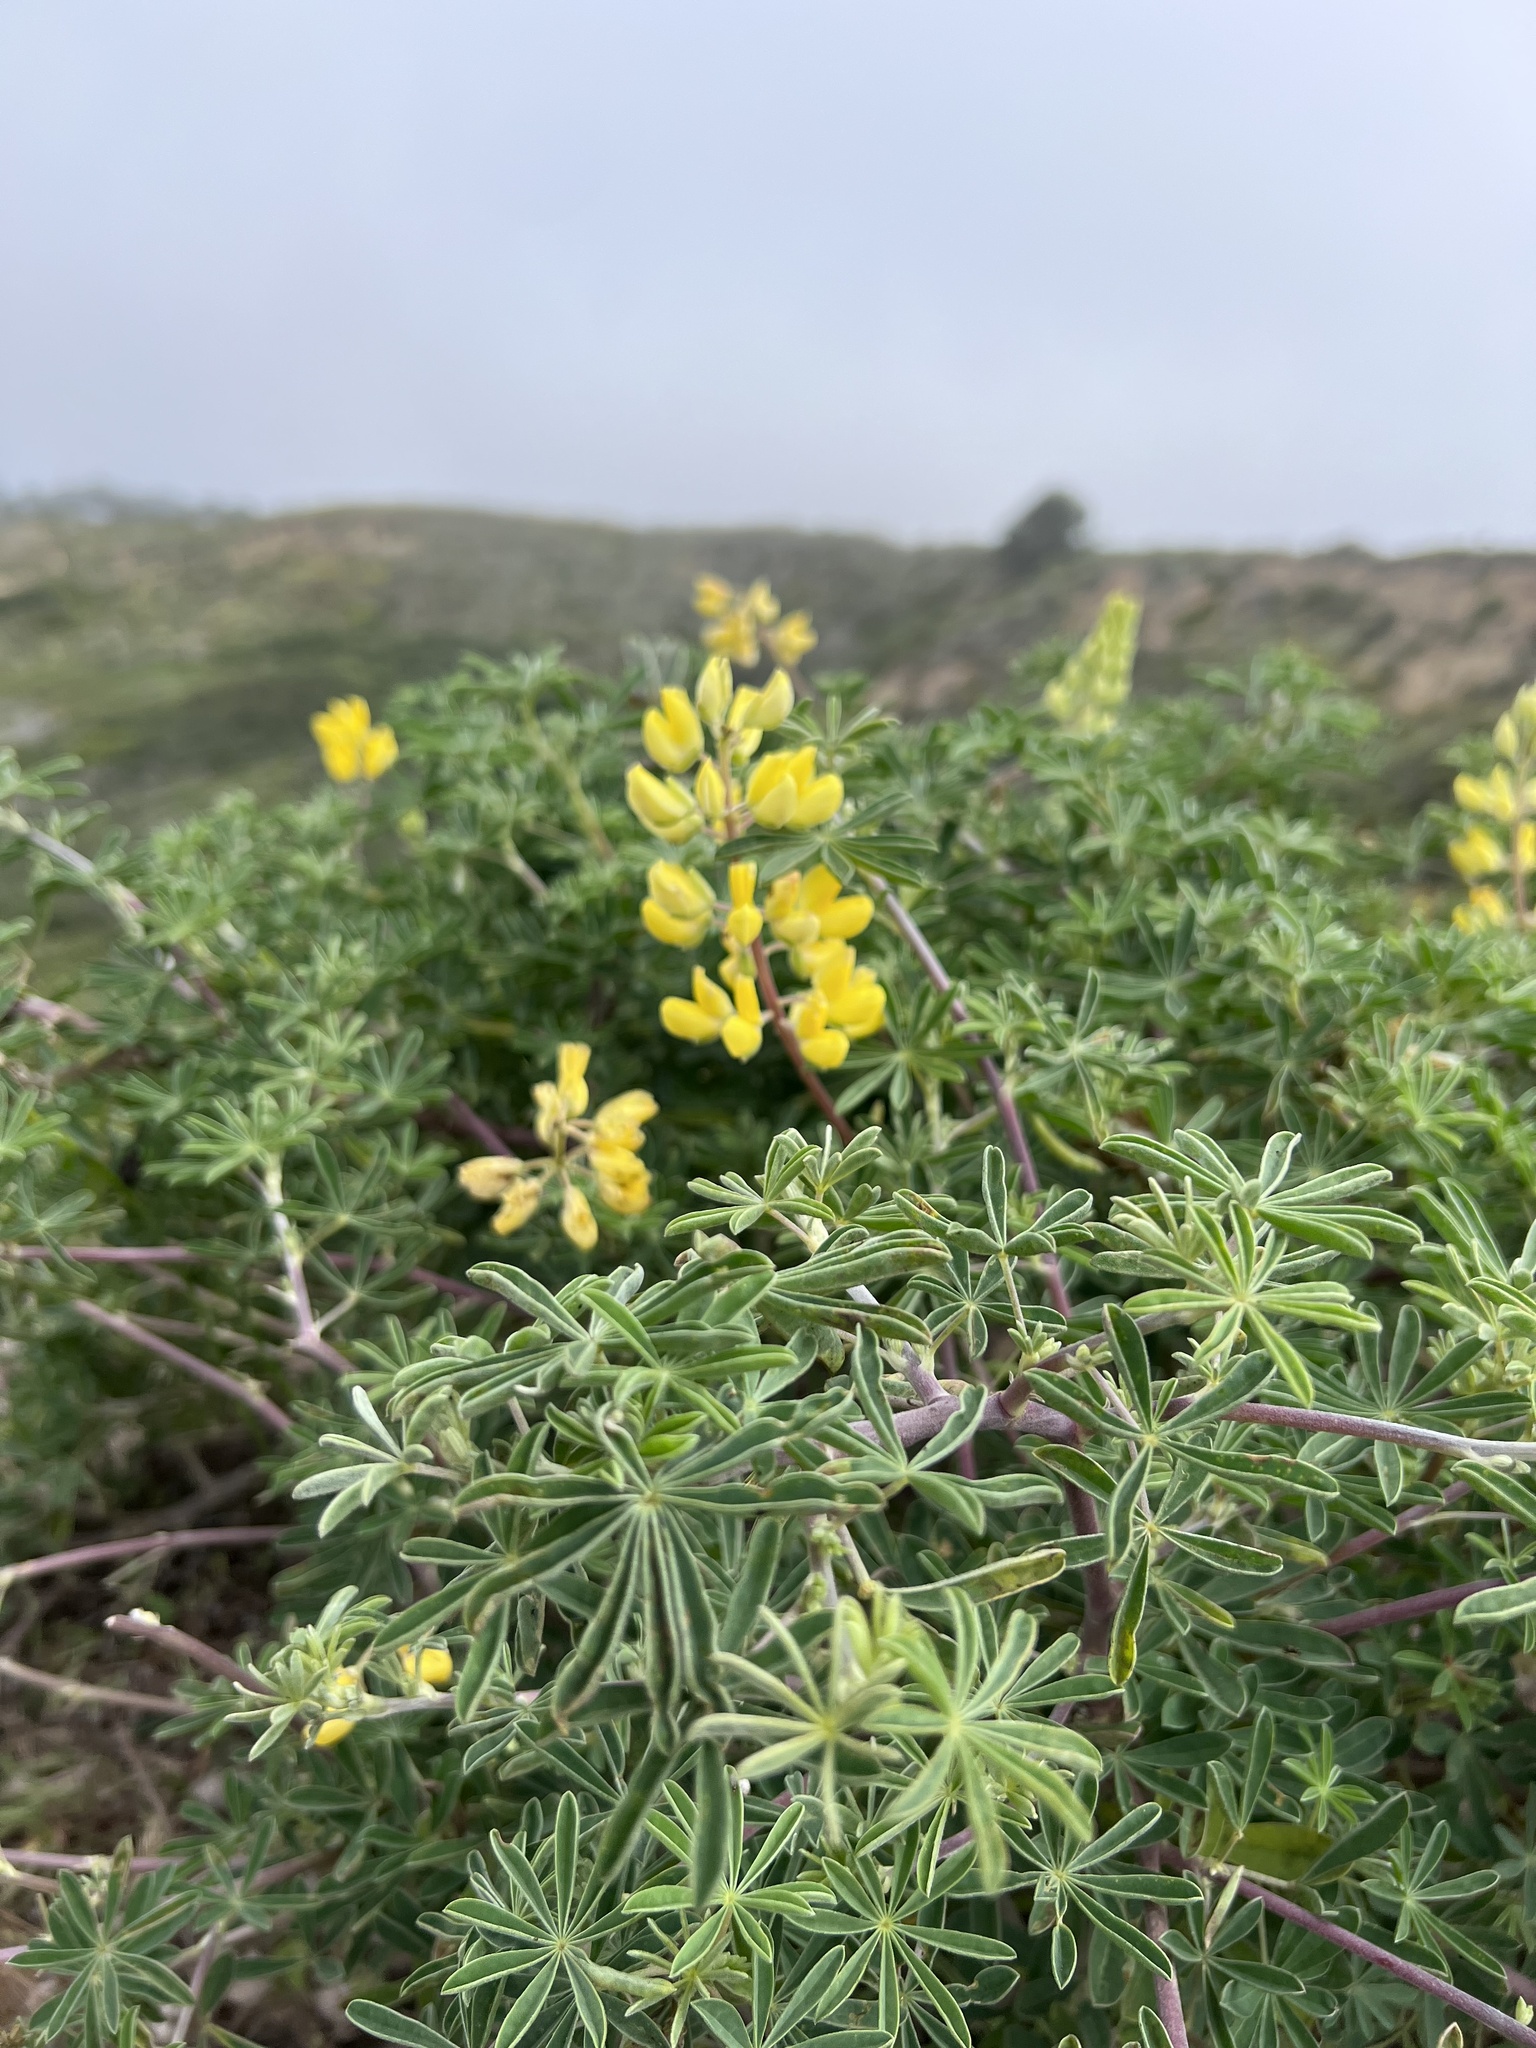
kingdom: Plantae
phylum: Tracheophyta
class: Magnoliopsida
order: Fabales
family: Fabaceae
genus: Lupinus
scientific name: Lupinus arboreus
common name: Yellow bush lupine
